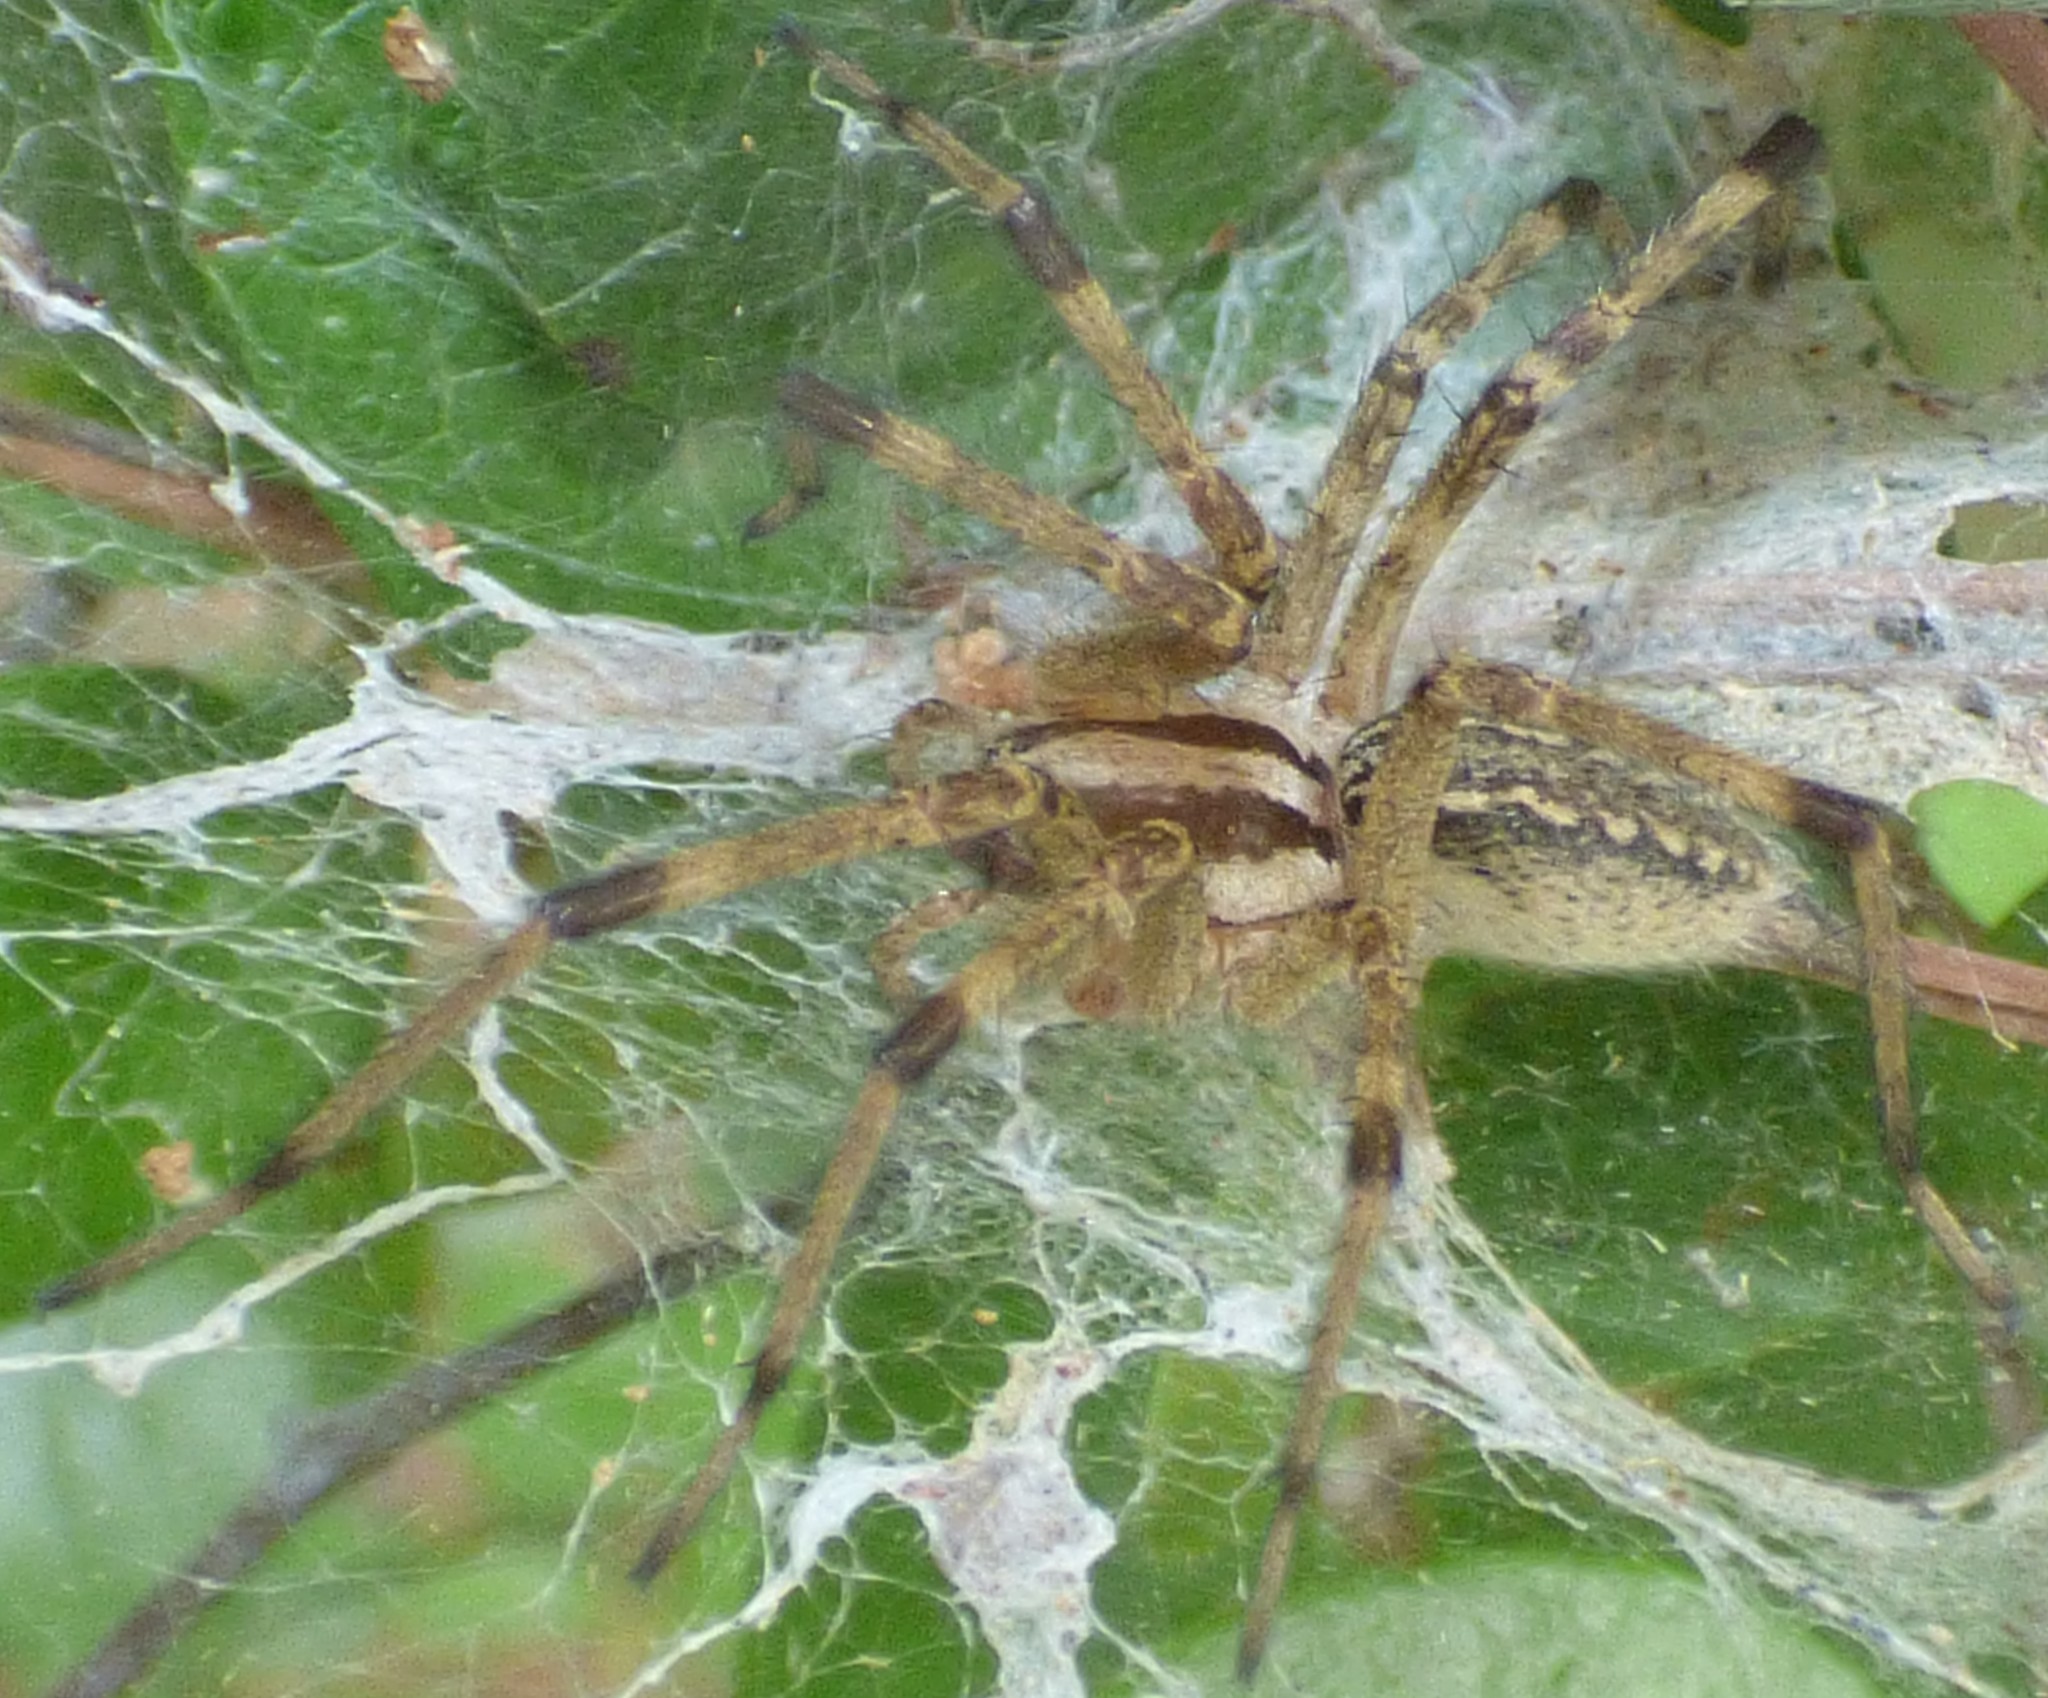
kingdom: Animalia
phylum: Arthropoda
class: Arachnida
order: Araneae
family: Agelenidae
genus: Agelenopsis
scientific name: Agelenopsis
